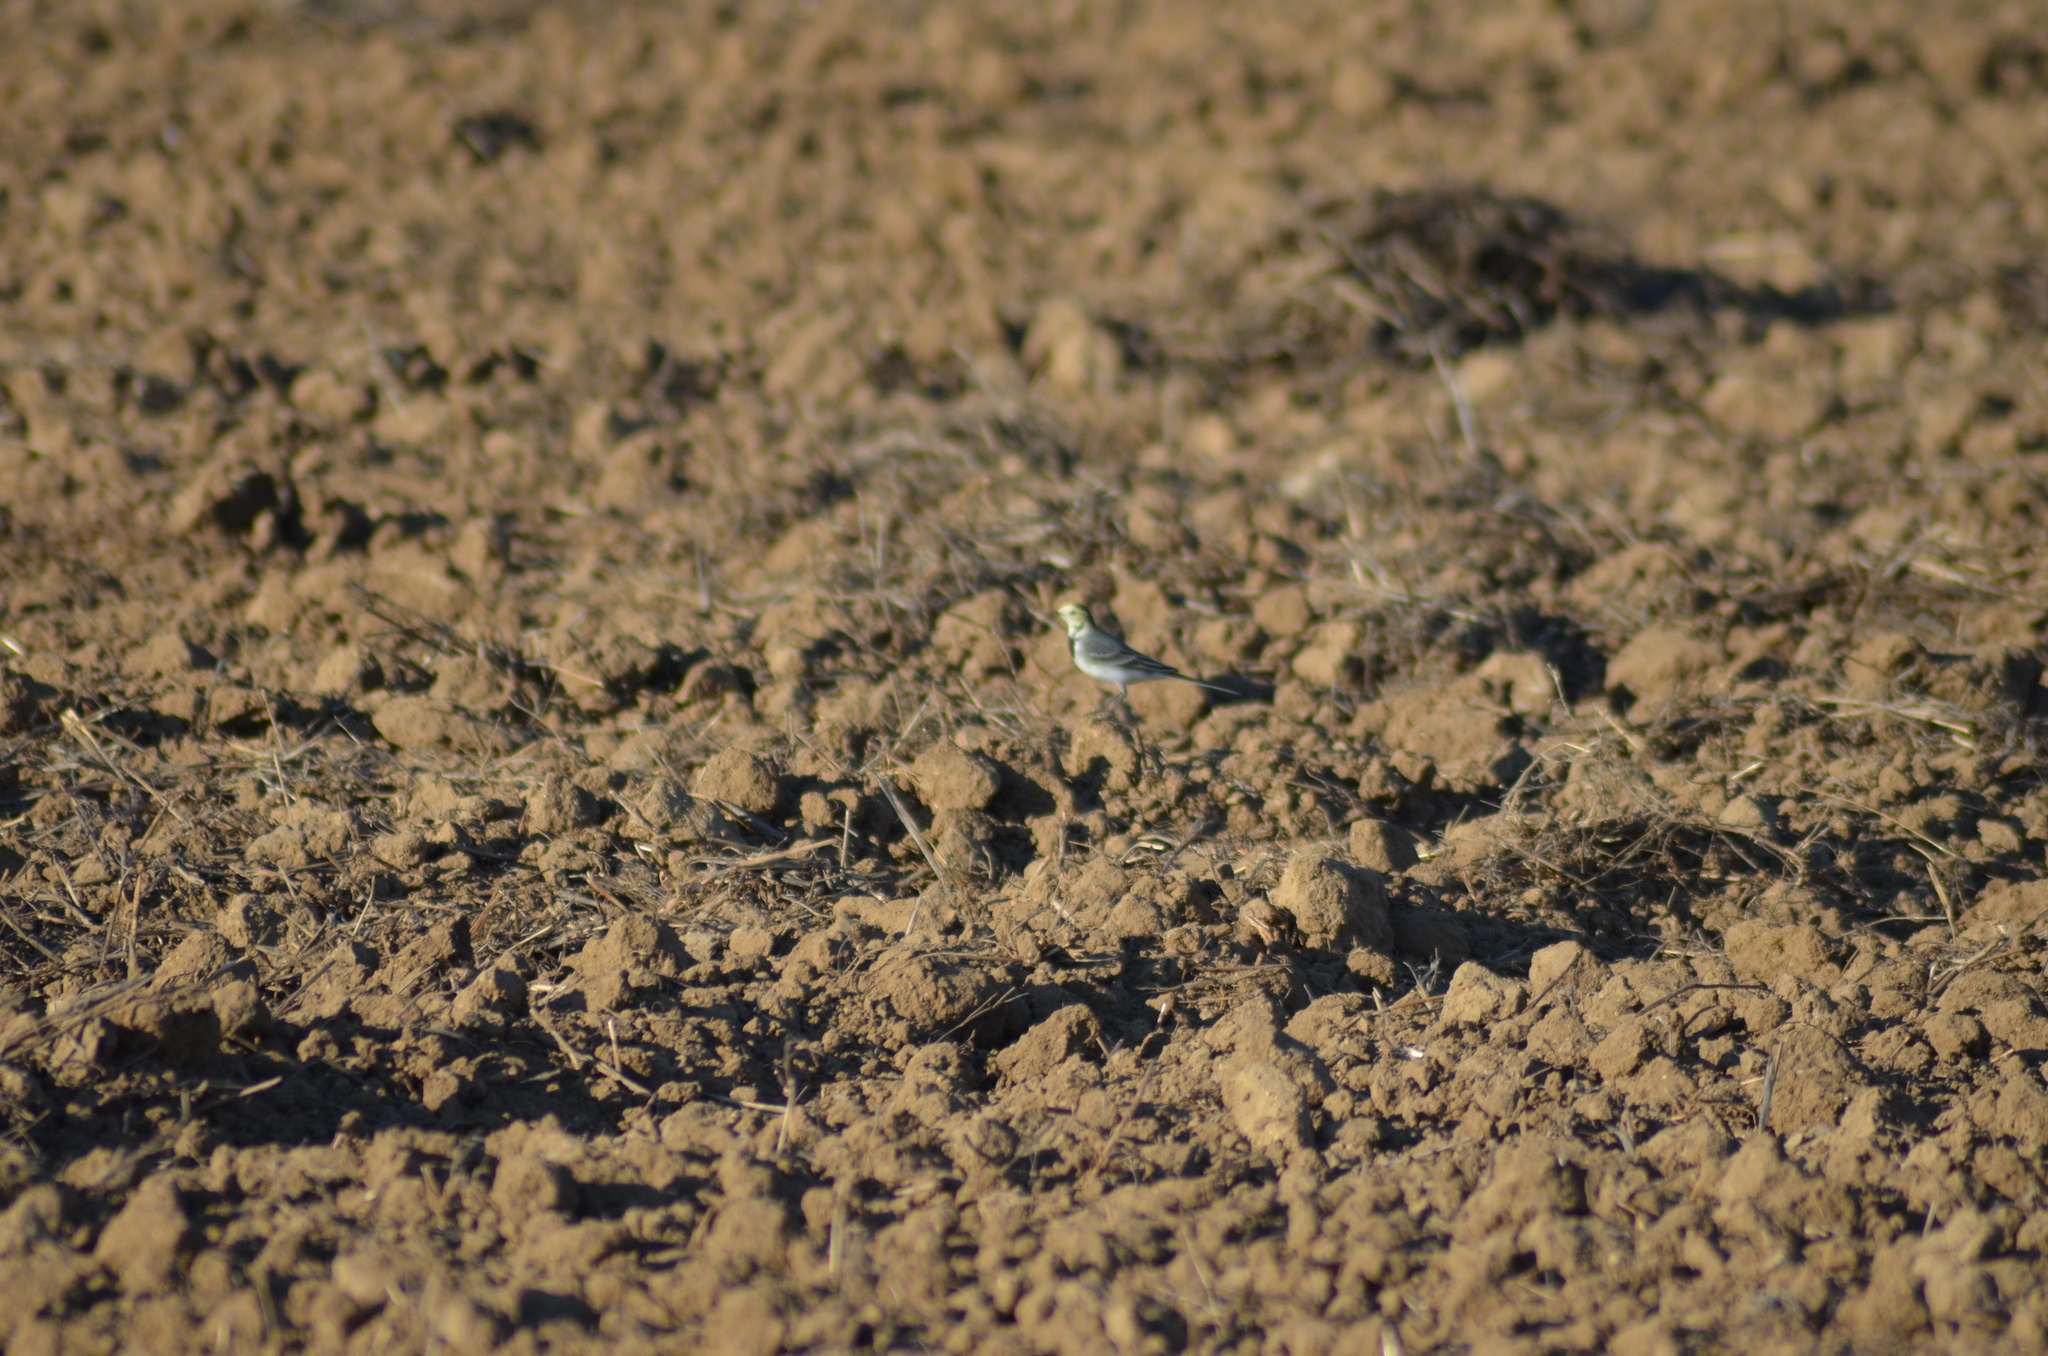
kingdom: Animalia
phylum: Chordata
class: Aves
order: Passeriformes
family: Motacillidae
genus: Motacilla
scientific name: Motacilla alba
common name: White wagtail
